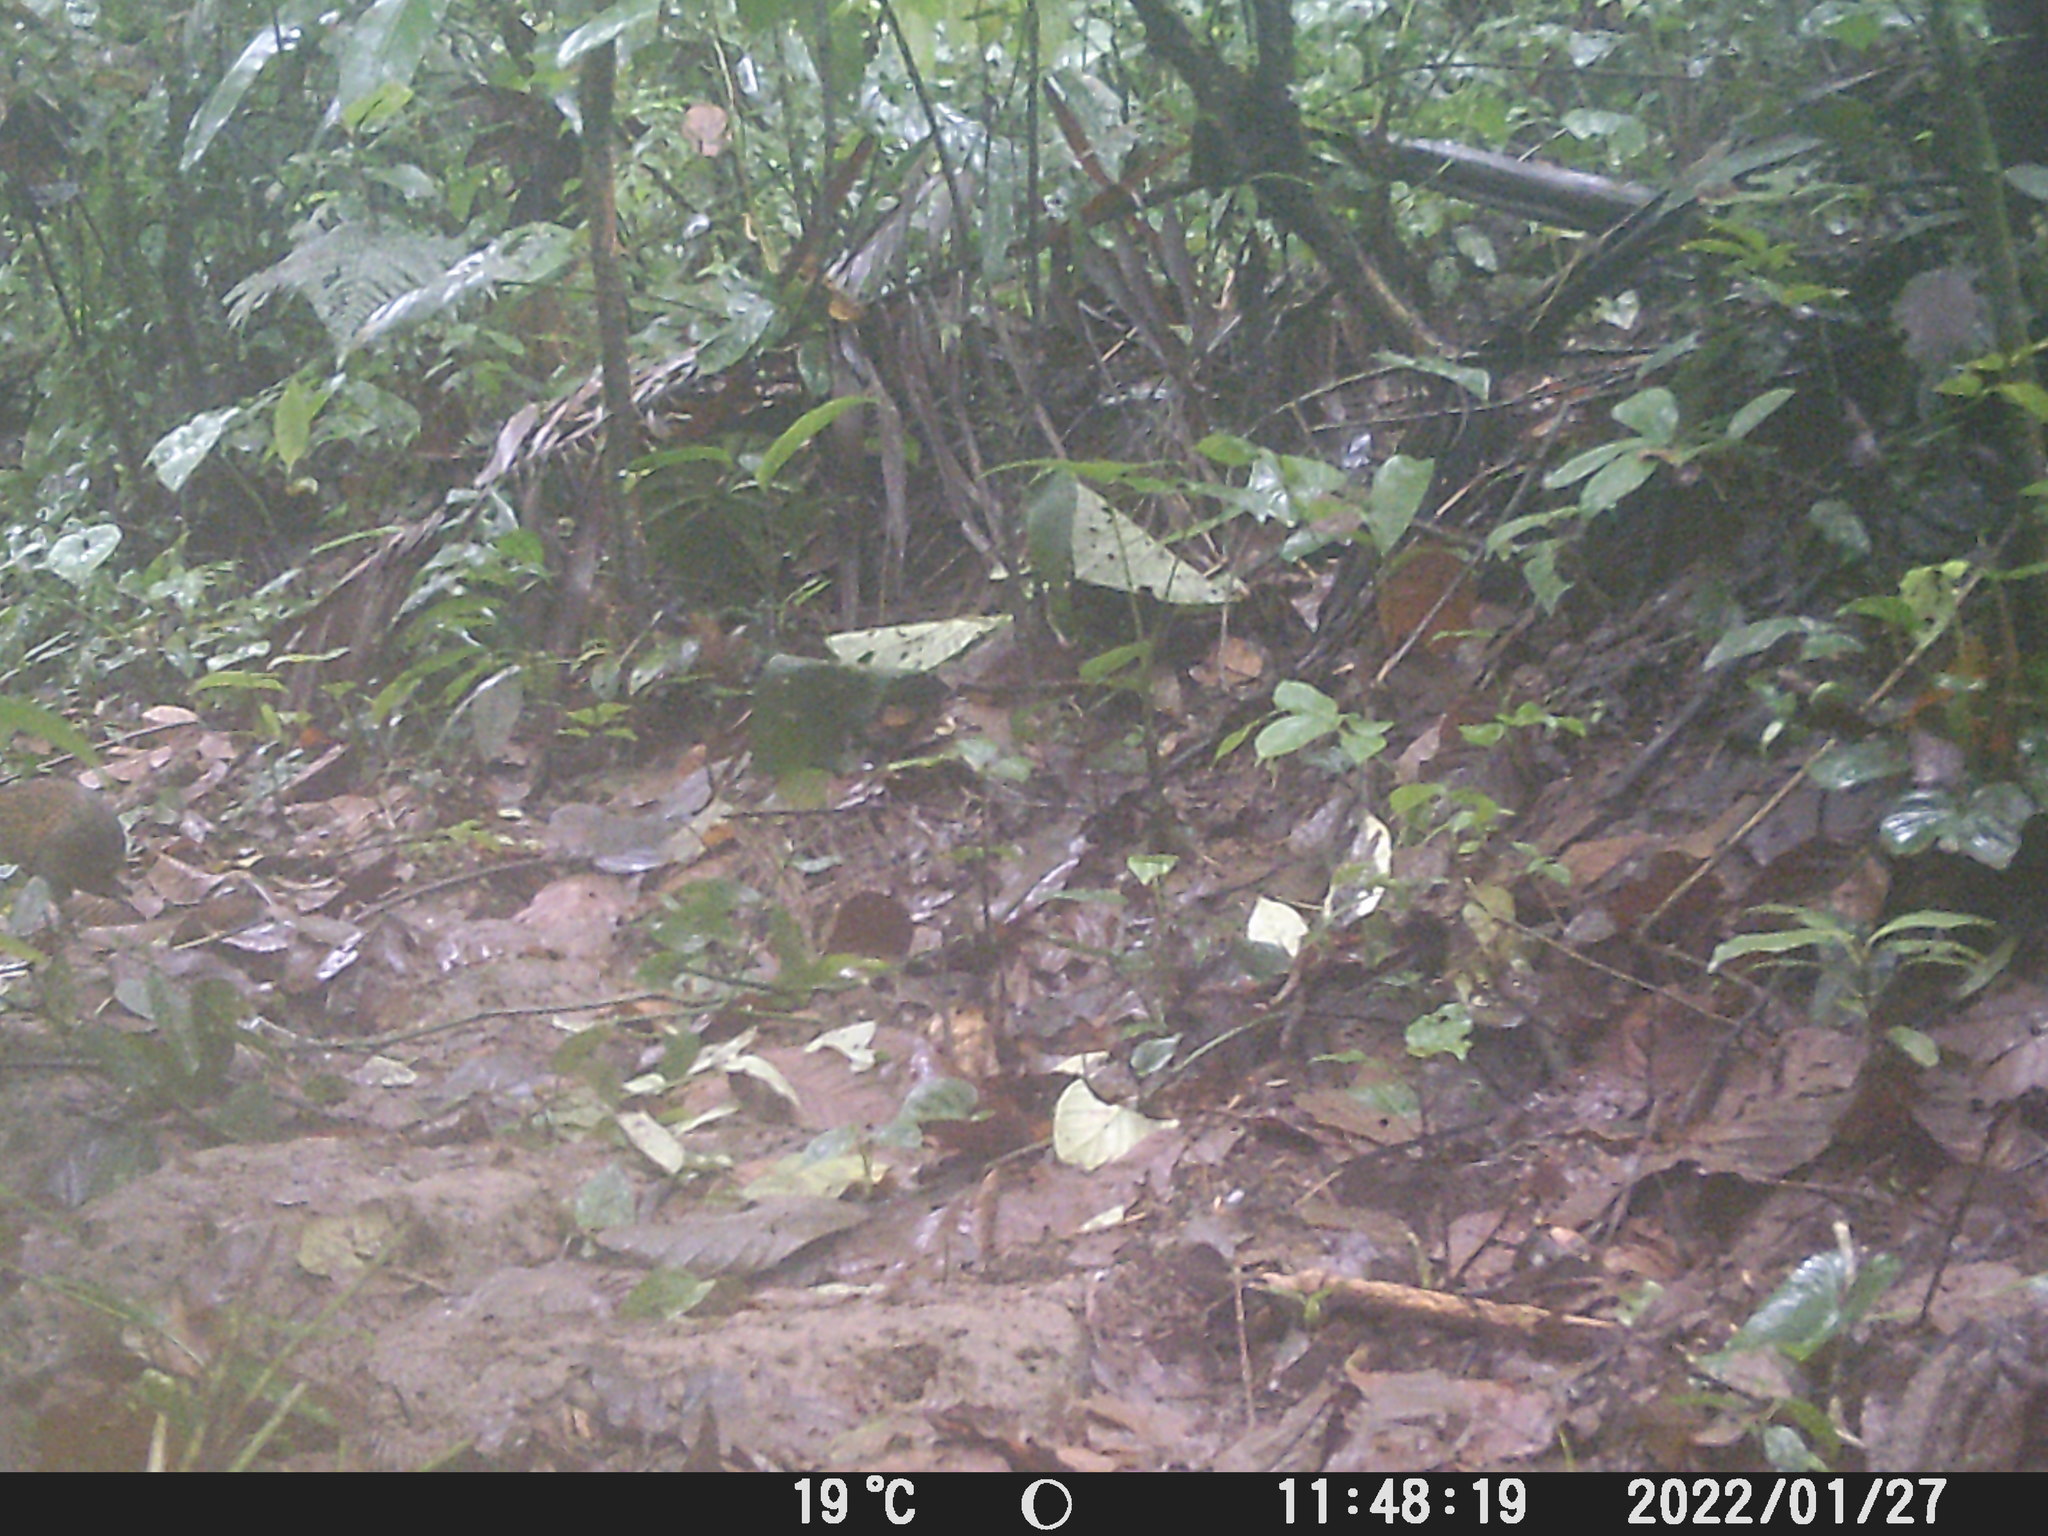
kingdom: Animalia
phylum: Chordata
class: Mammalia
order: Rodentia
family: Dasyproctidae
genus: Dasyprocta
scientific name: Dasyprocta punctata
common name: Central american agouti
